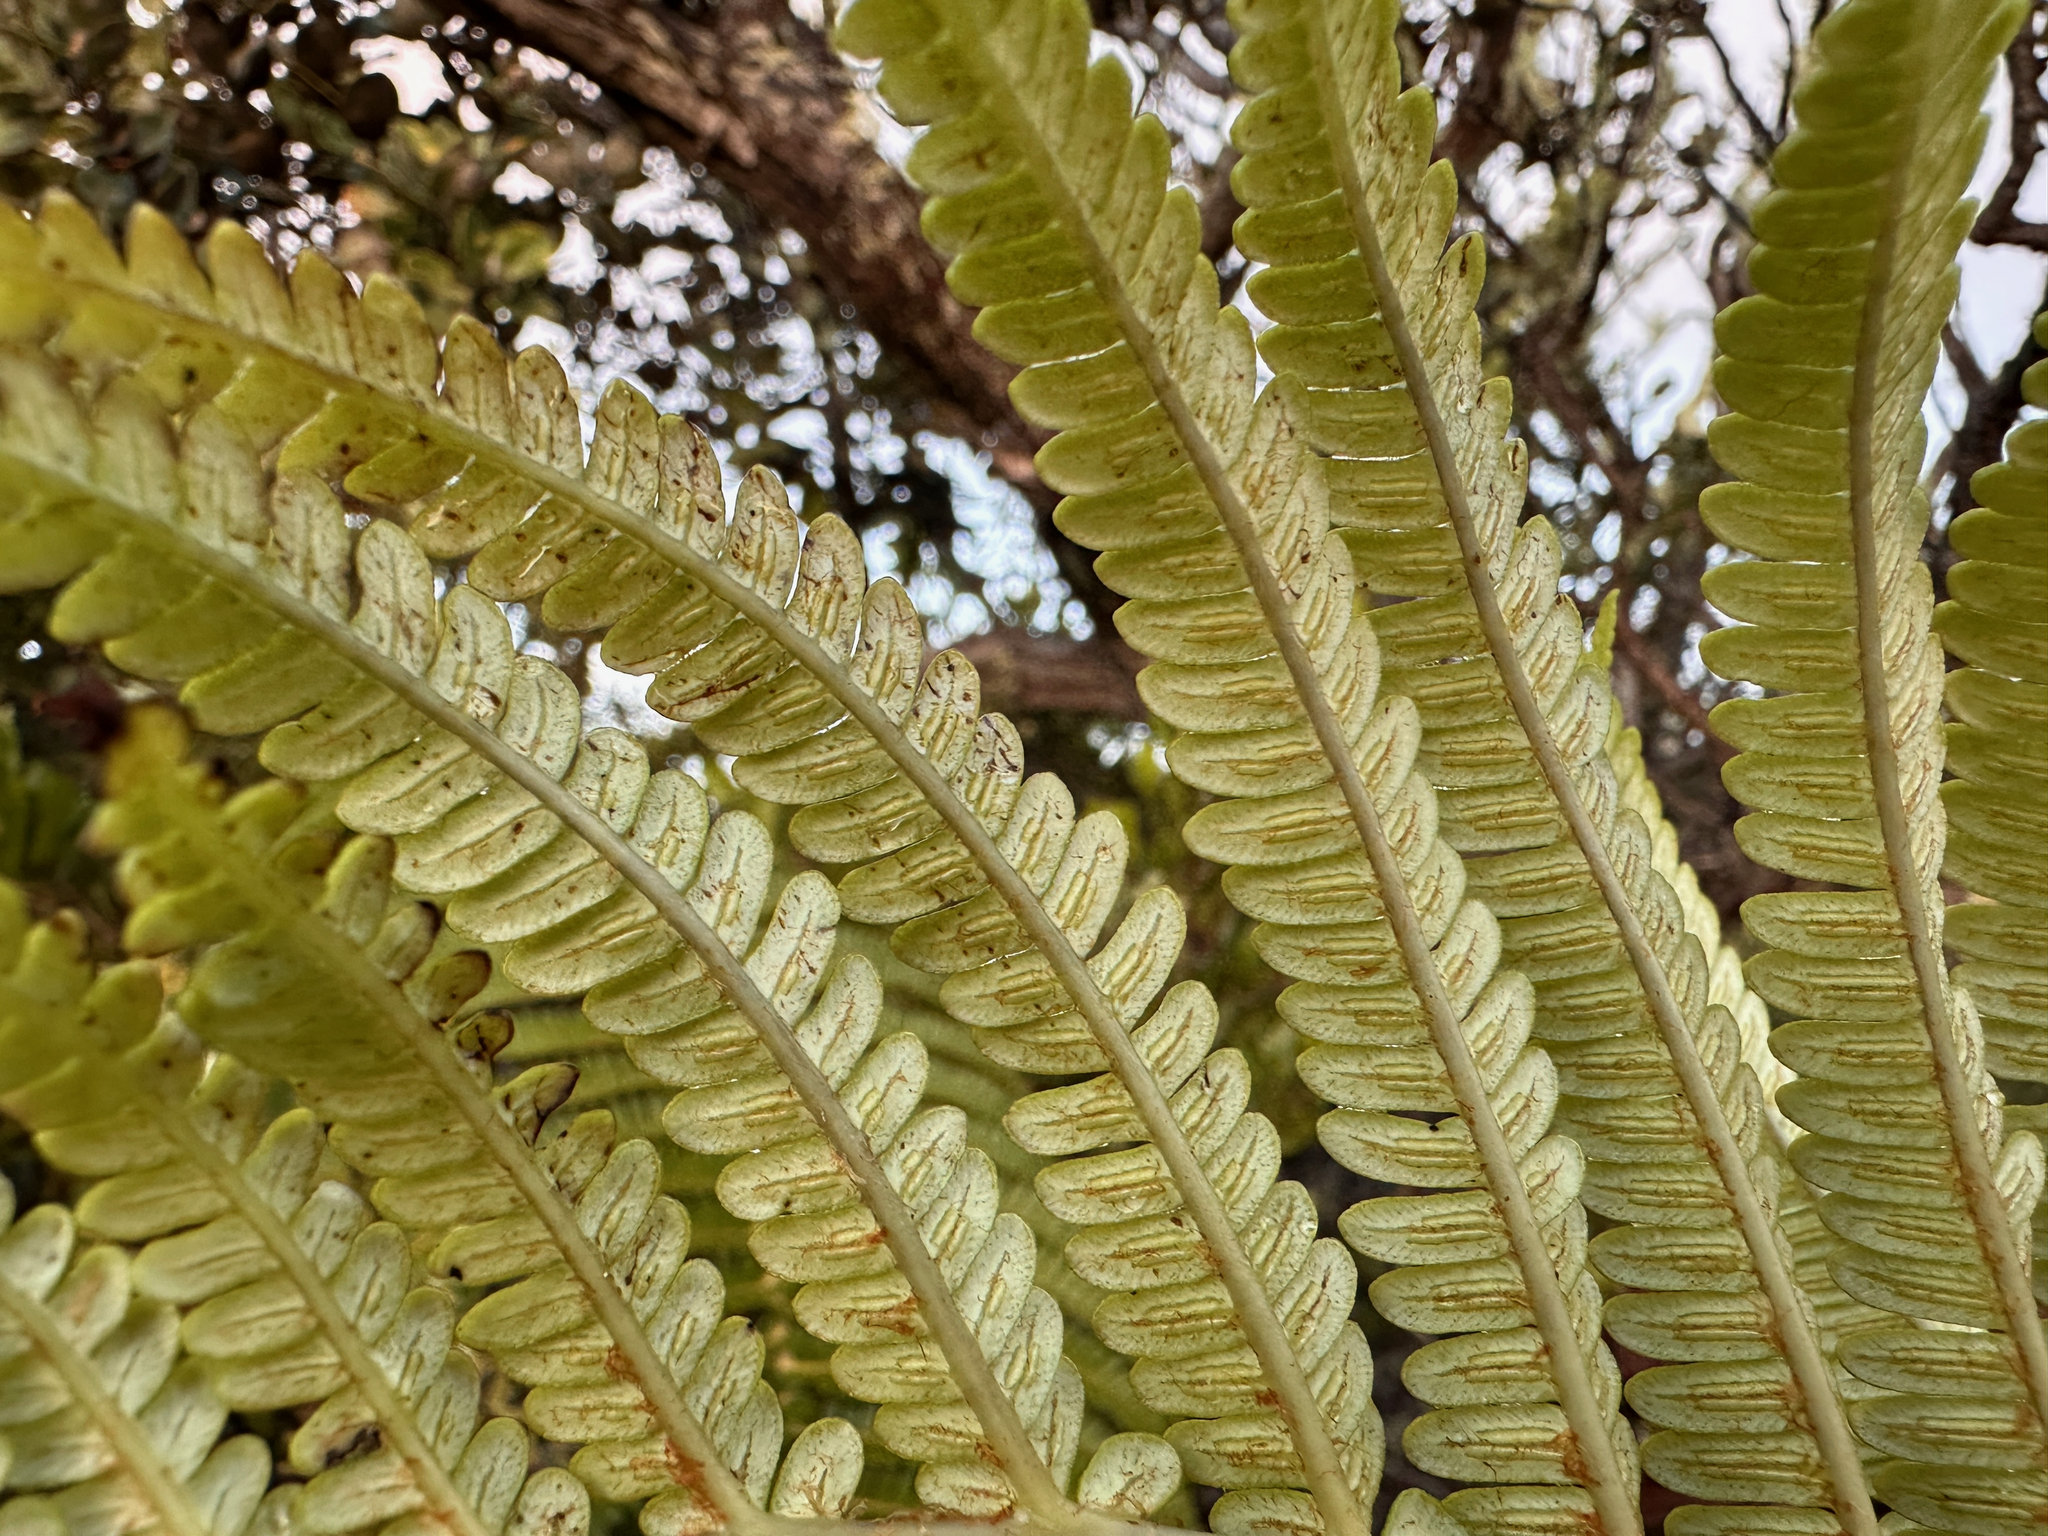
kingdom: Plantae
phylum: Tracheophyta
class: Polypodiopsida
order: Polypodiales
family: Blechnaceae
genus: Sadleria
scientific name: Sadleria cyatheoides
